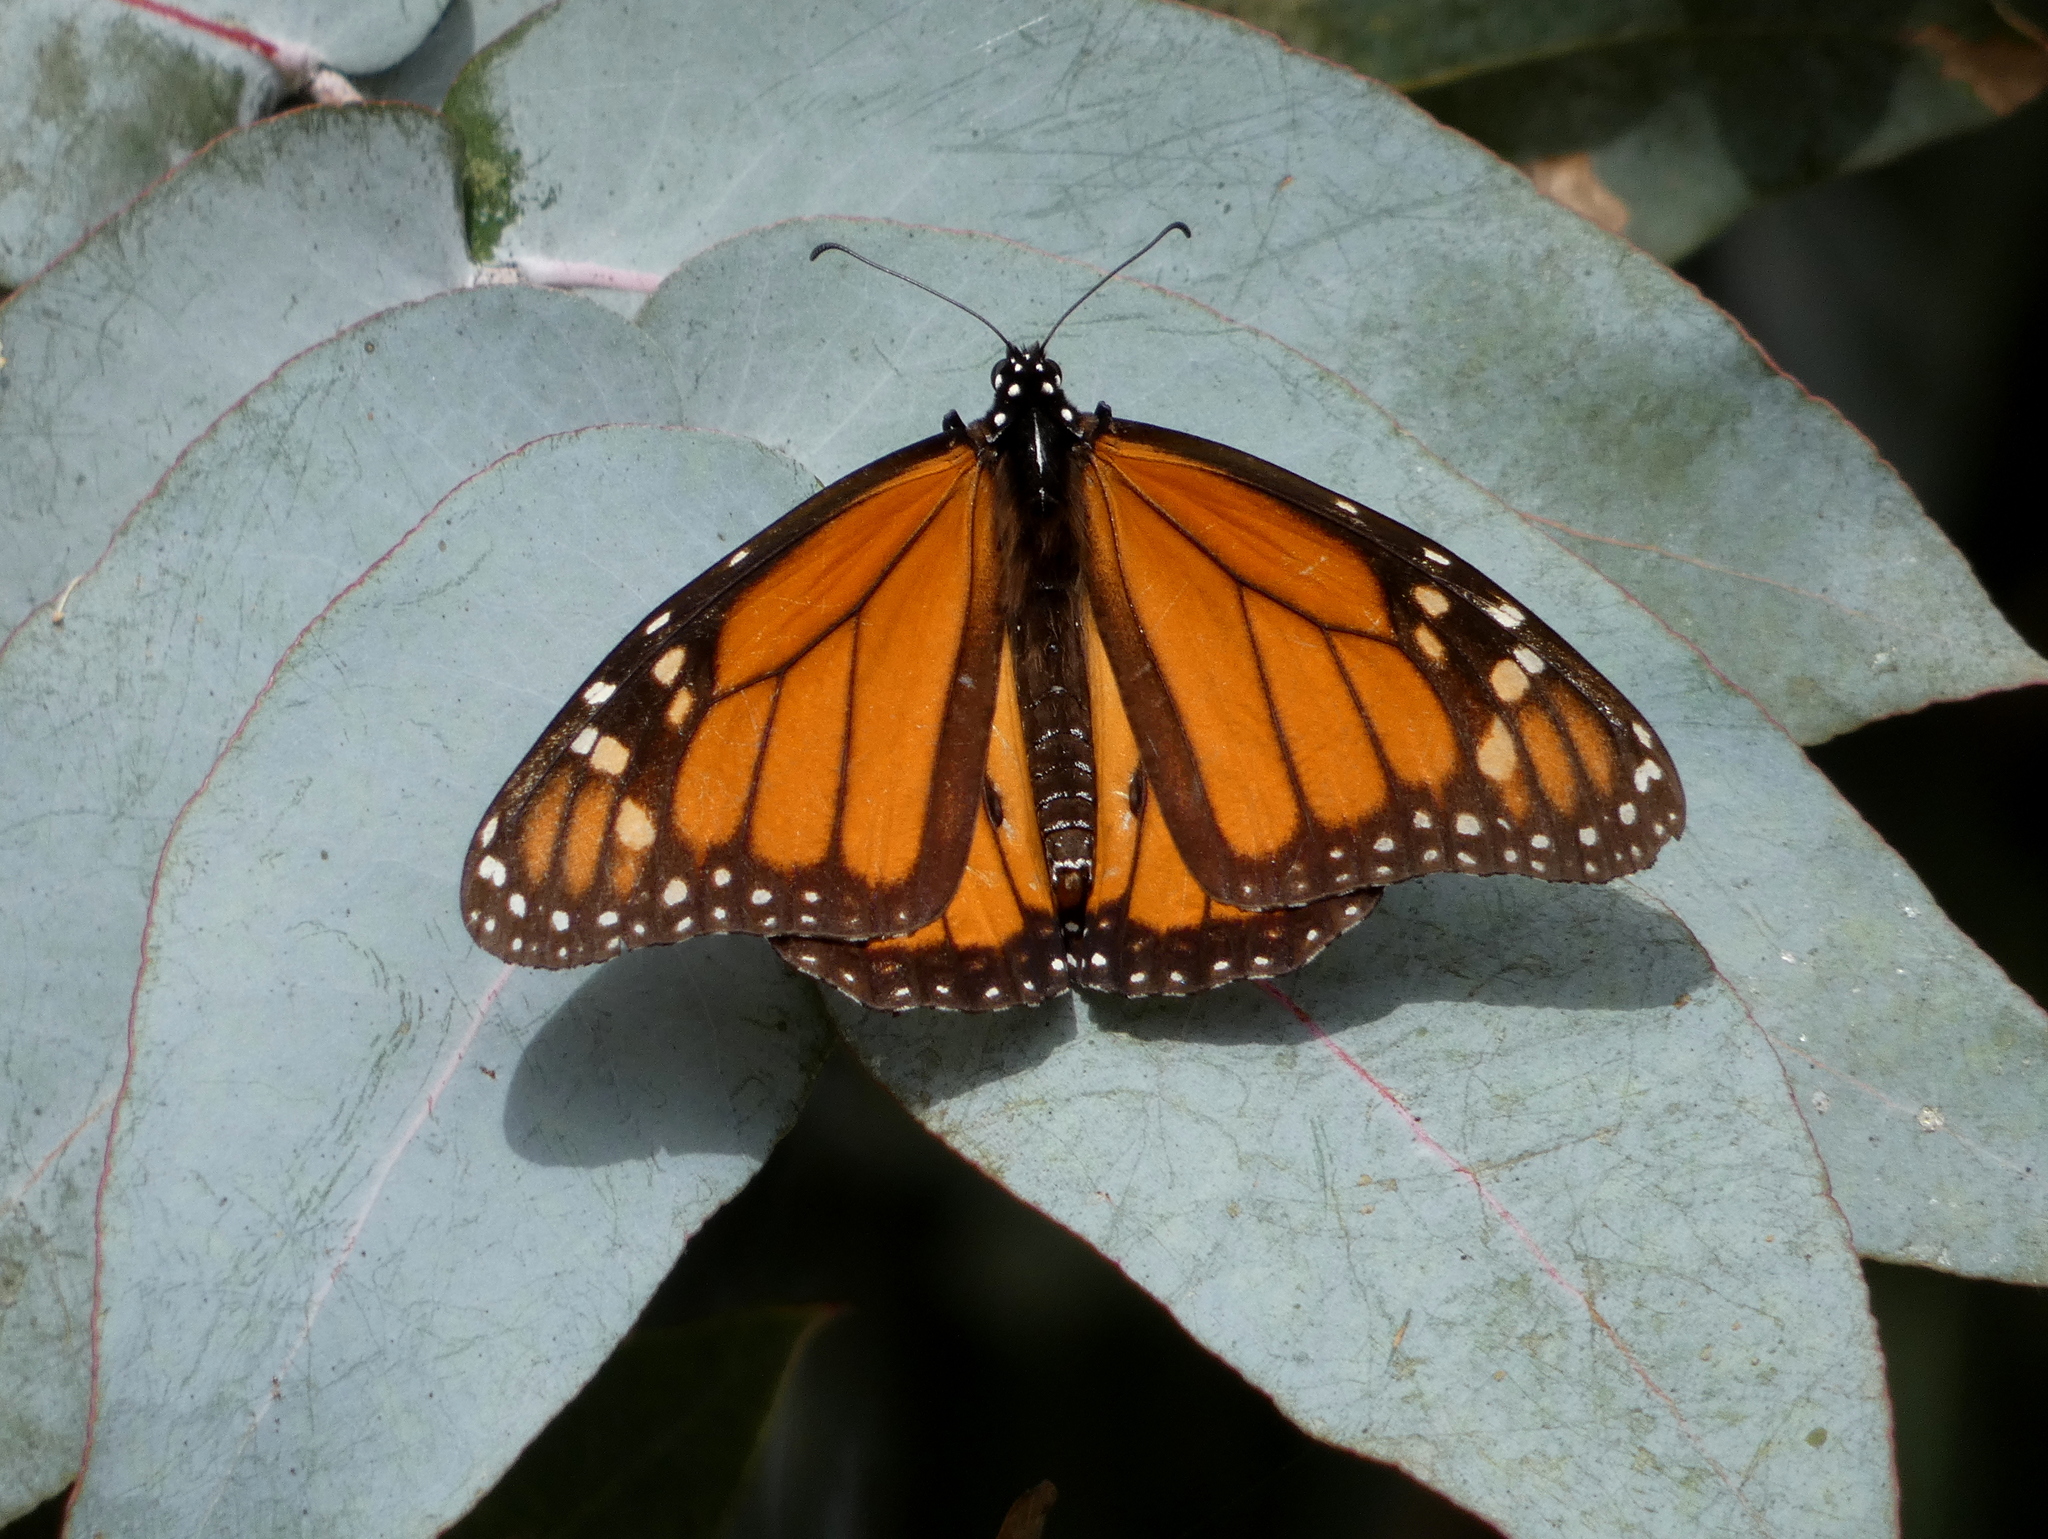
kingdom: Animalia
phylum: Arthropoda
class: Insecta
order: Lepidoptera
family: Nymphalidae
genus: Danaus
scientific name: Danaus plexippus
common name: Monarch
